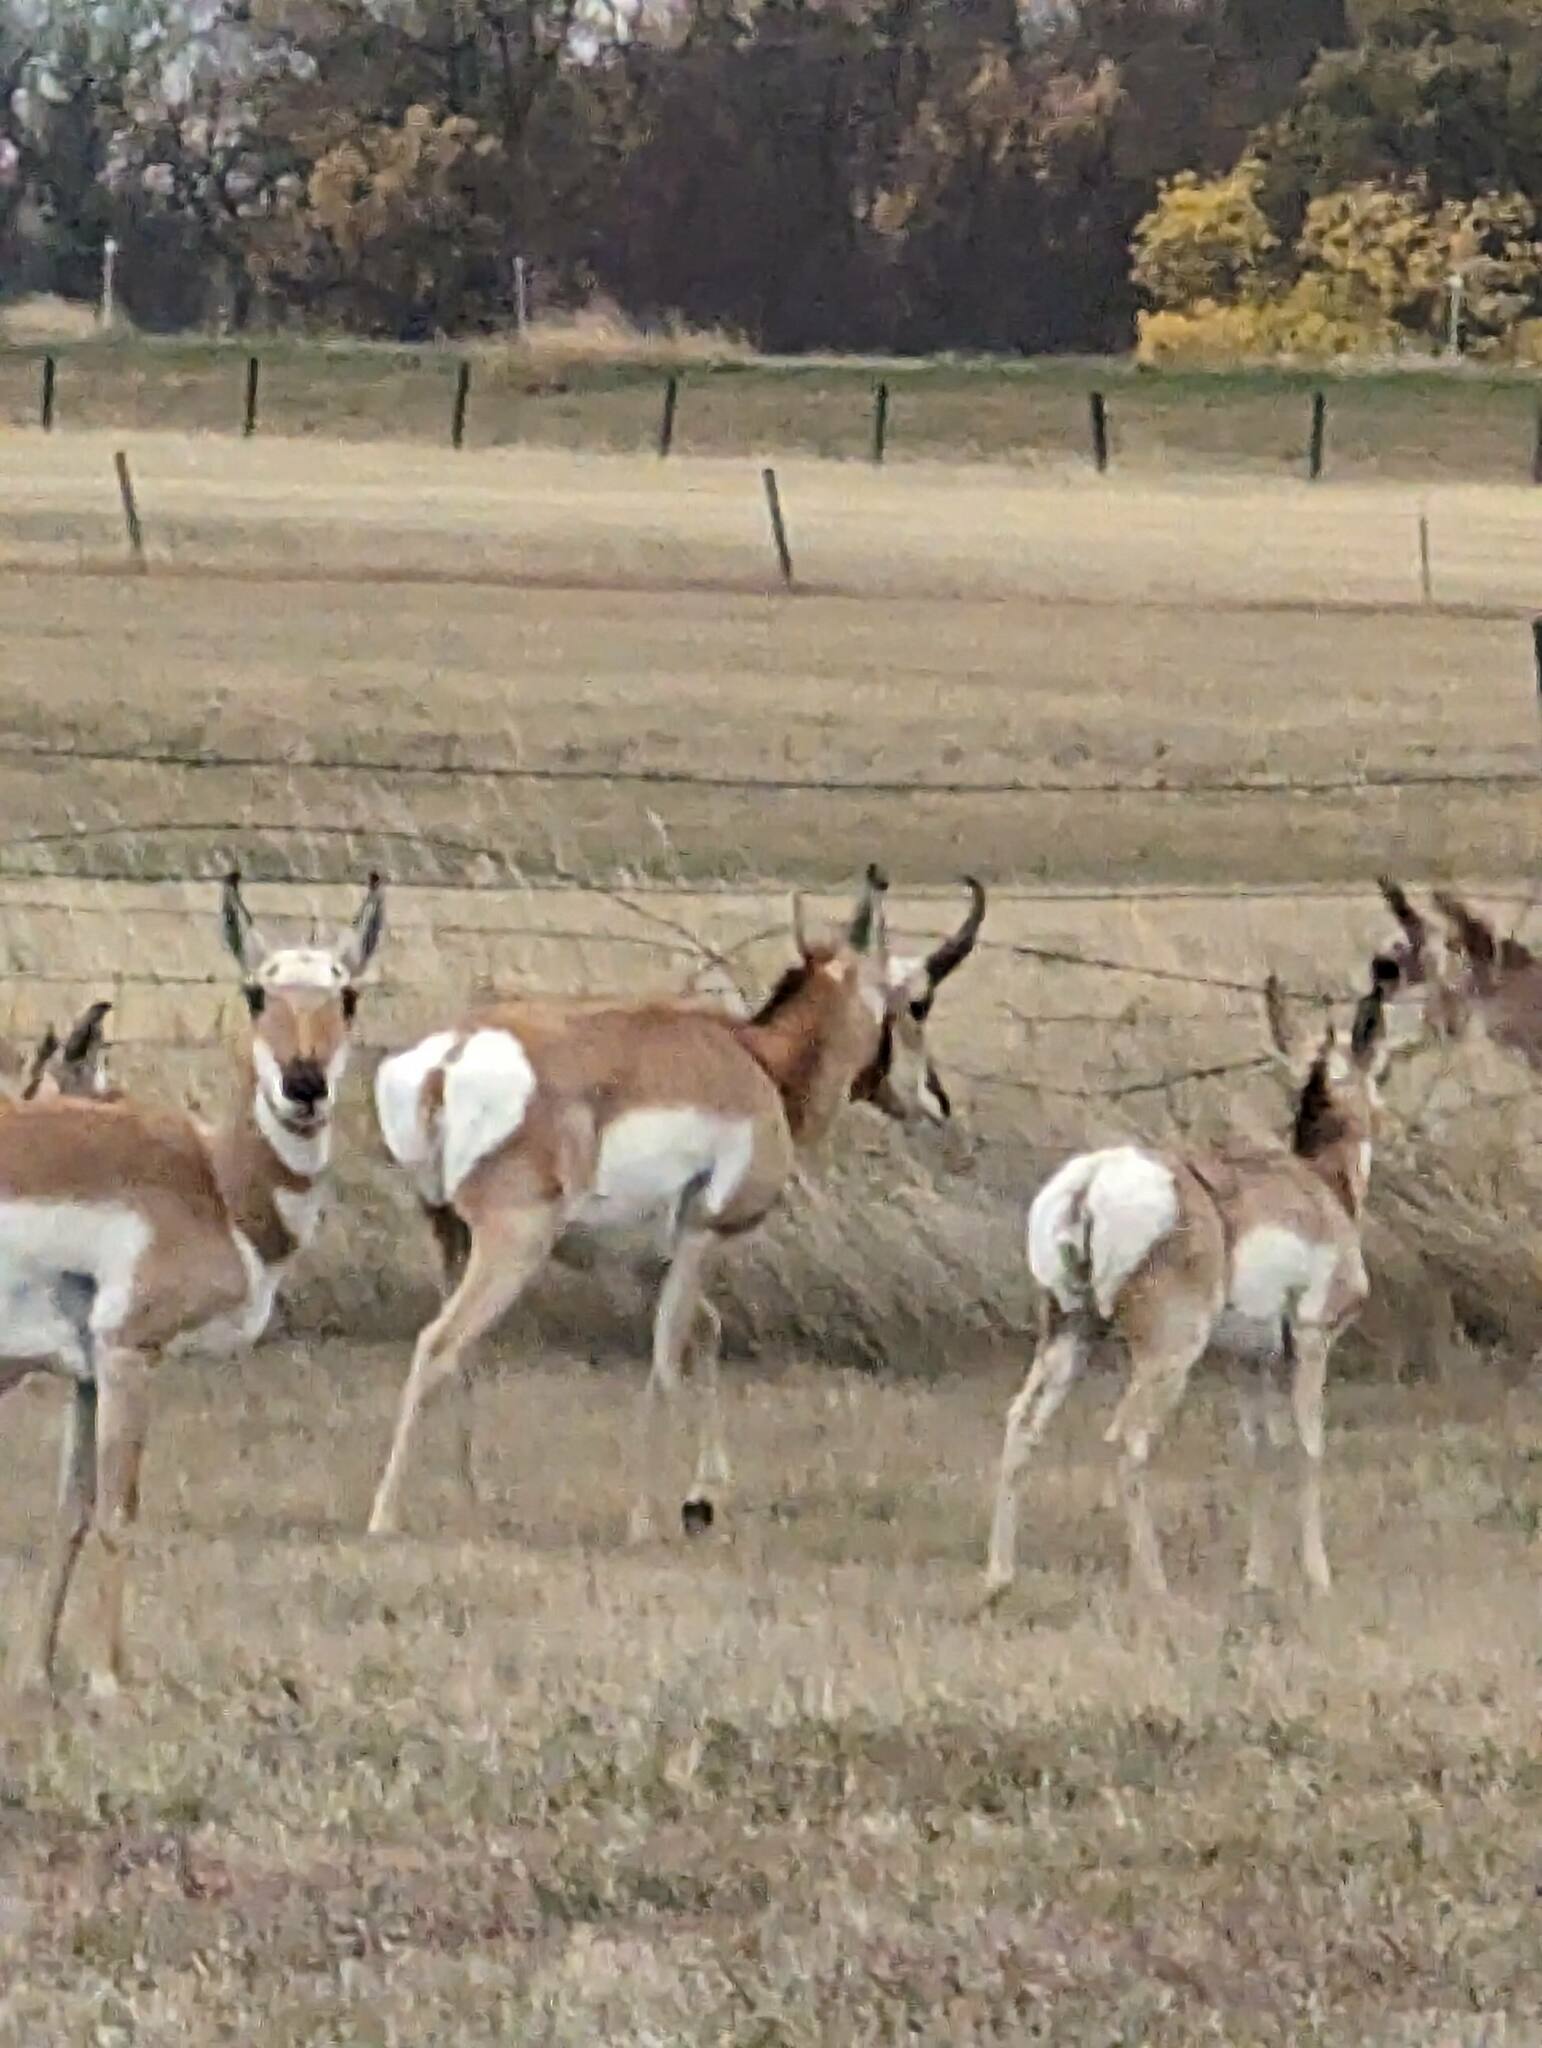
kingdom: Animalia
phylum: Chordata
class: Mammalia
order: Artiodactyla
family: Antilocapridae
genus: Antilocapra
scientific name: Antilocapra americana
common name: Pronghorn
